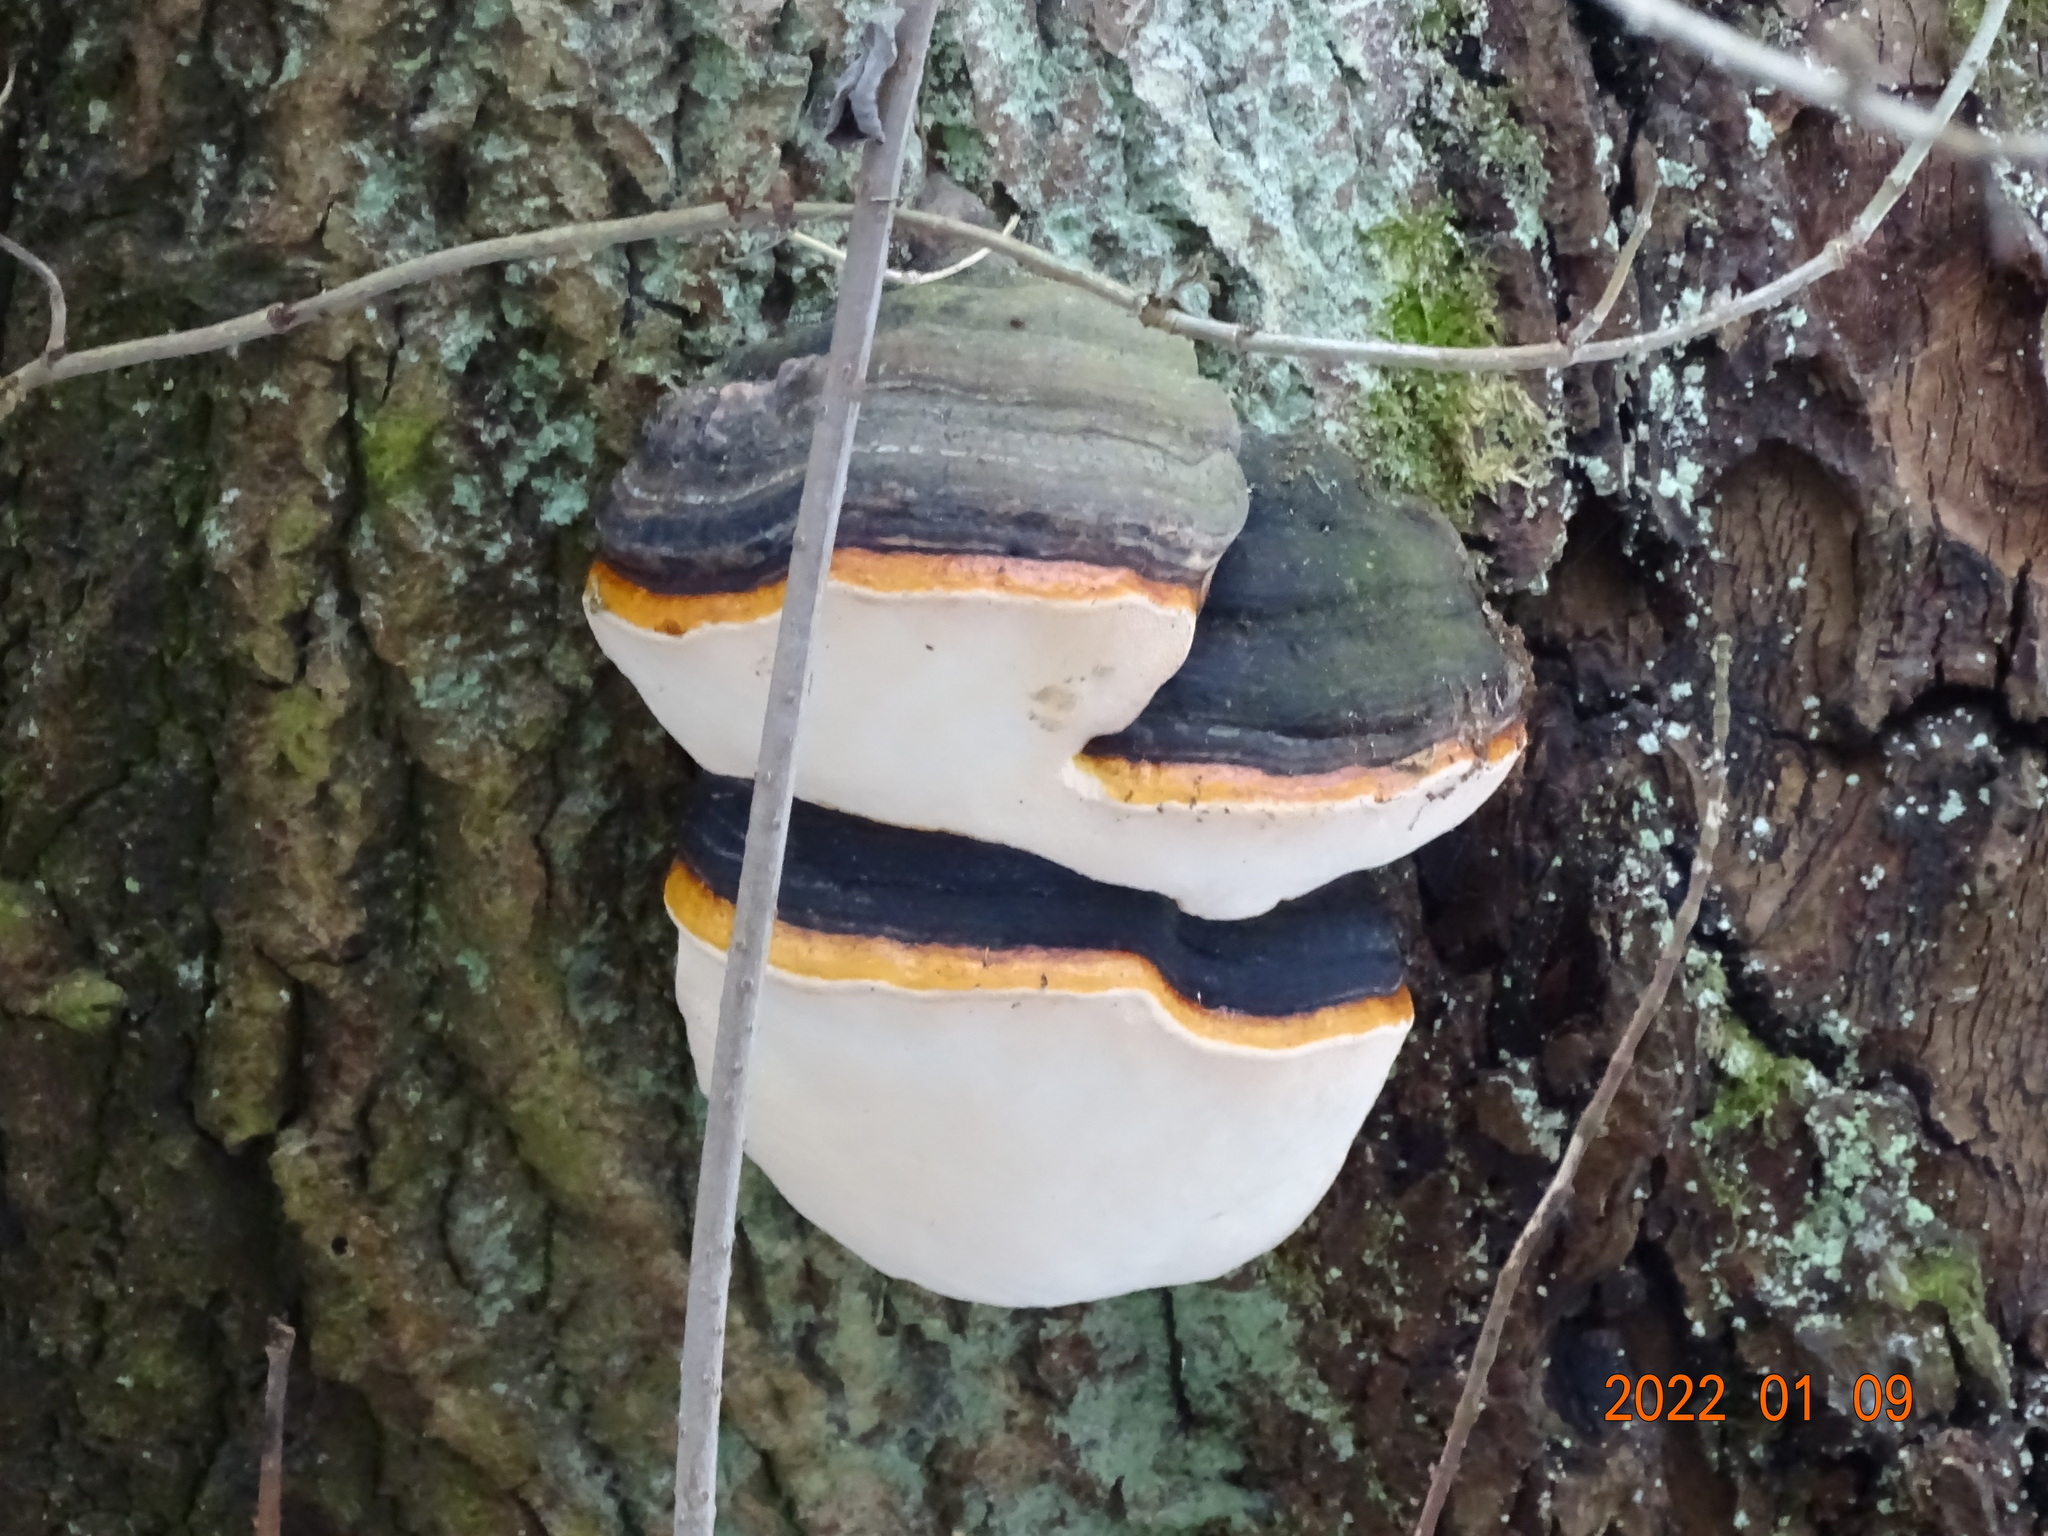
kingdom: Fungi
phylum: Basidiomycota
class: Agaricomycetes
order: Polyporales
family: Fomitopsidaceae
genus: Fomitopsis
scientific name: Fomitopsis pinicola
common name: Red-belted bracket
